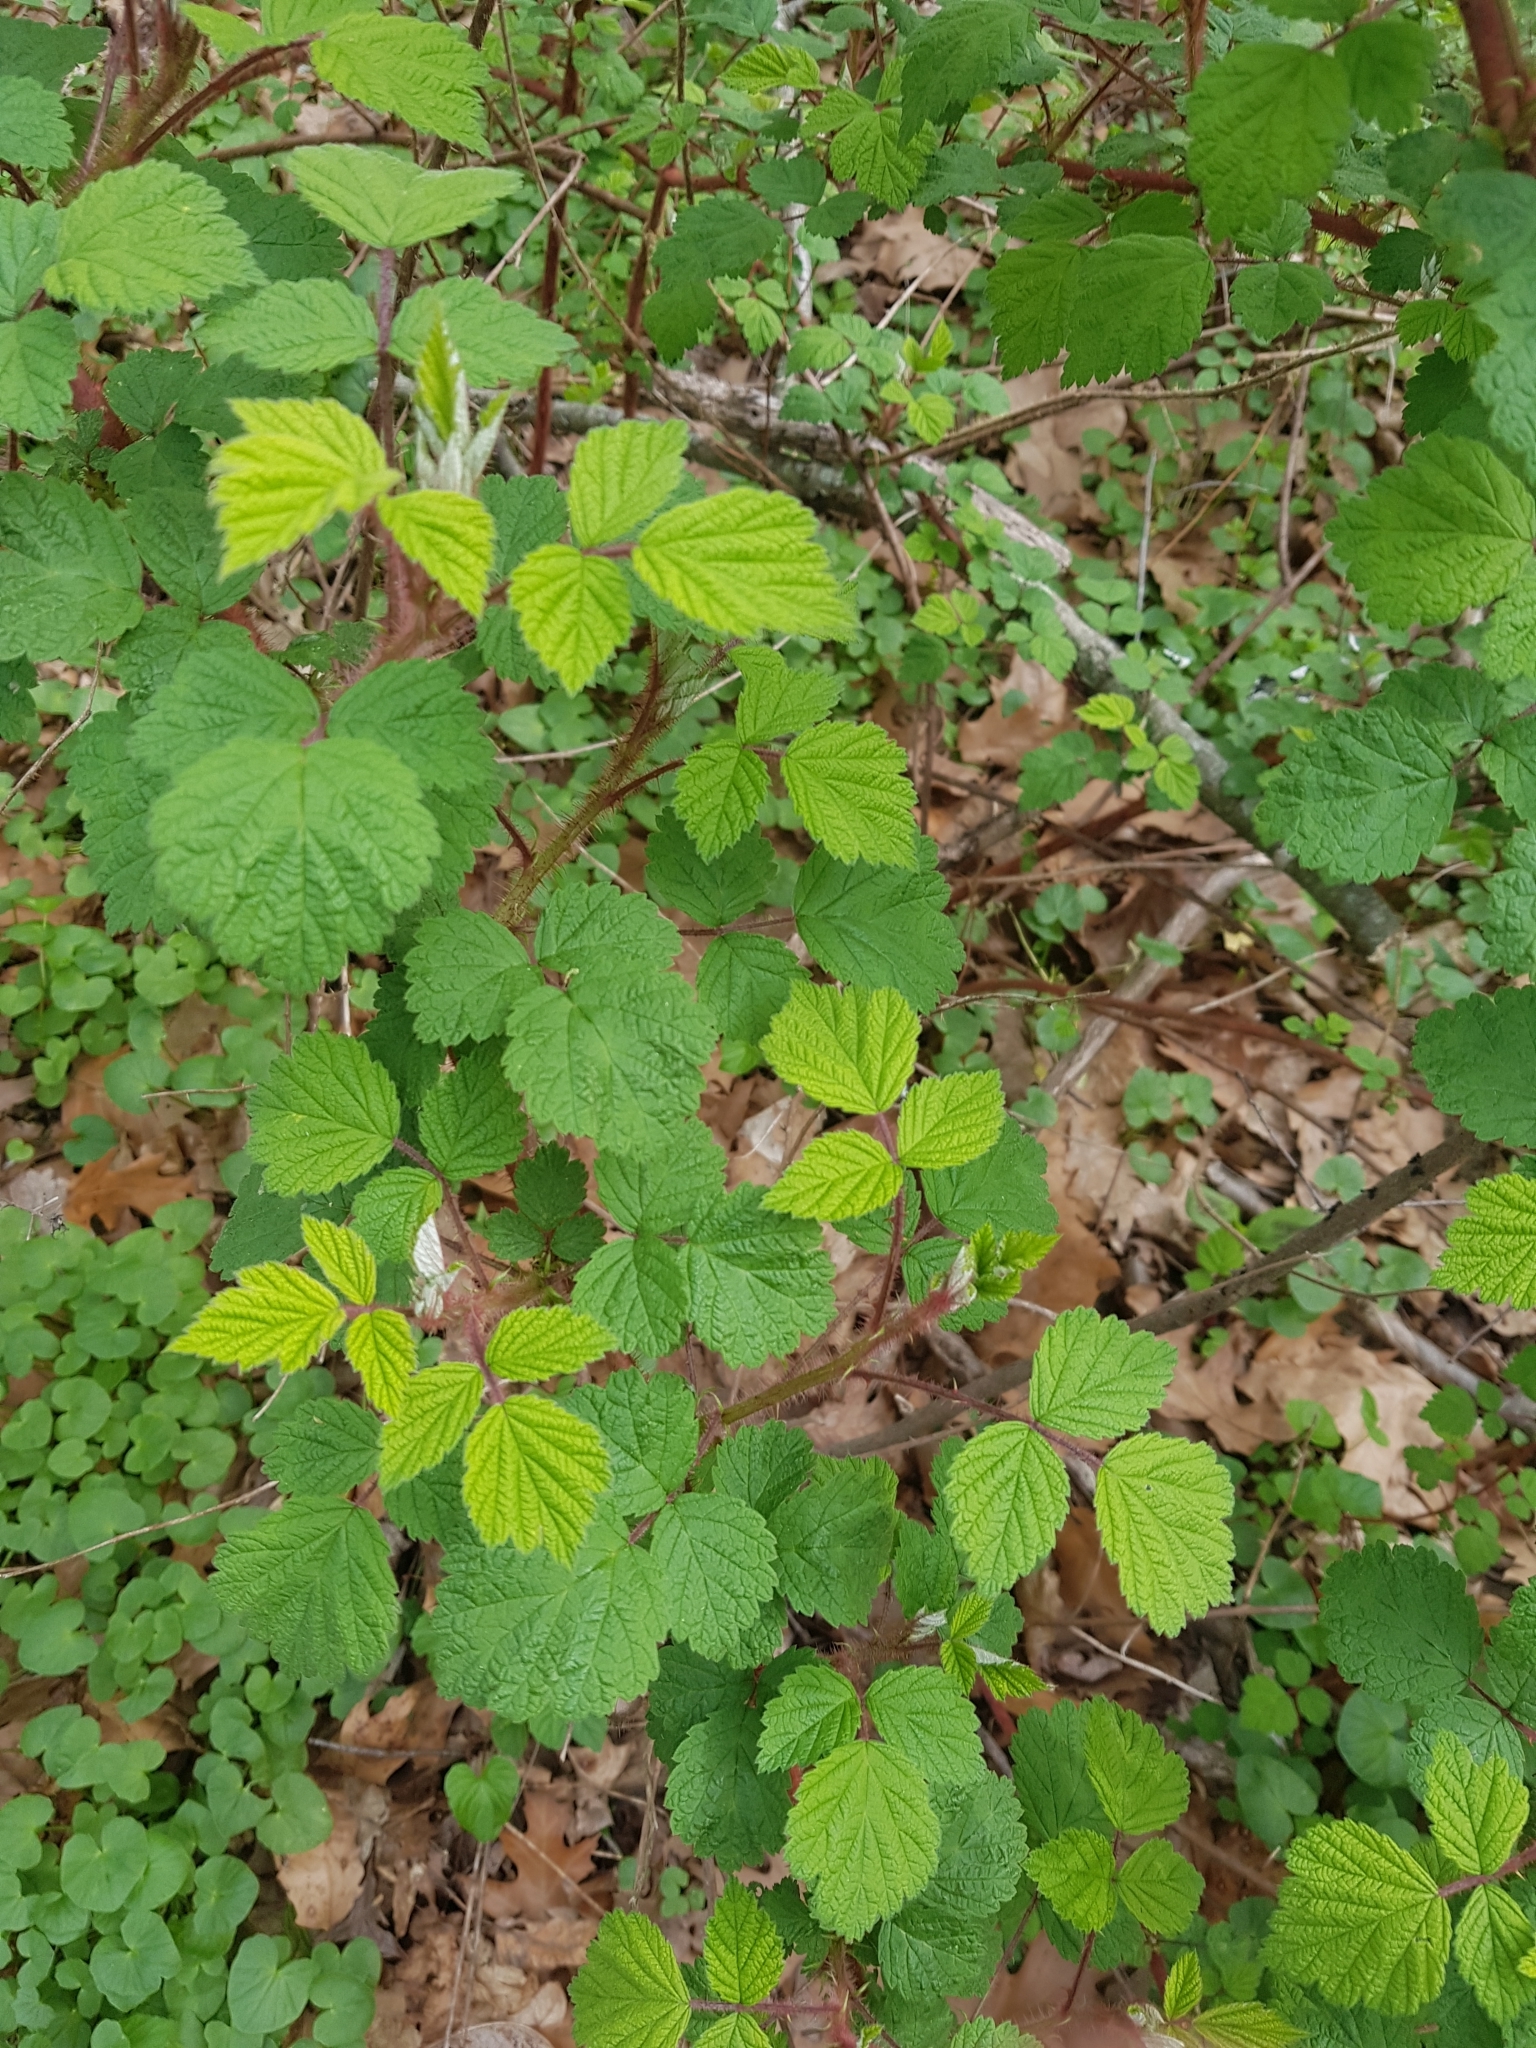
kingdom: Plantae
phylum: Tracheophyta
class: Magnoliopsida
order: Rosales
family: Rosaceae
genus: Rubus
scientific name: Rubus phoenicolasius
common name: Japanese wineberry
